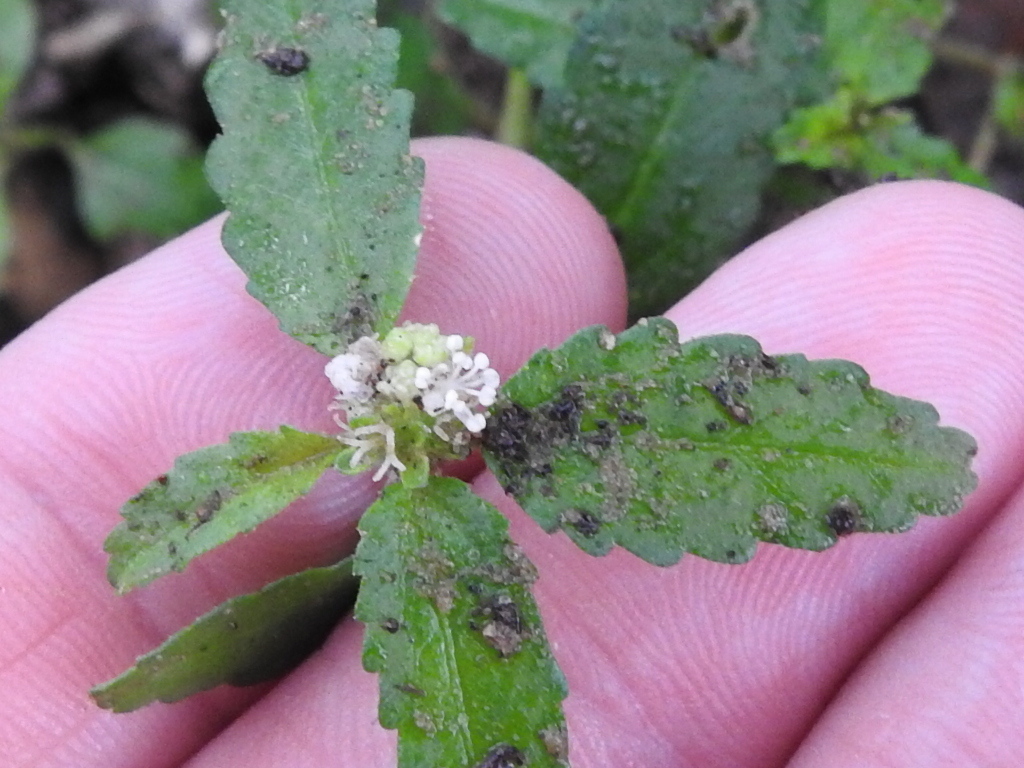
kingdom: Plantae
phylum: Tracheophyta
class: Magnoliopsida
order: Malpighiales
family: Euphorbiaceae
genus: Croton
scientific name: Croton glandulosus
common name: Tropic croton
